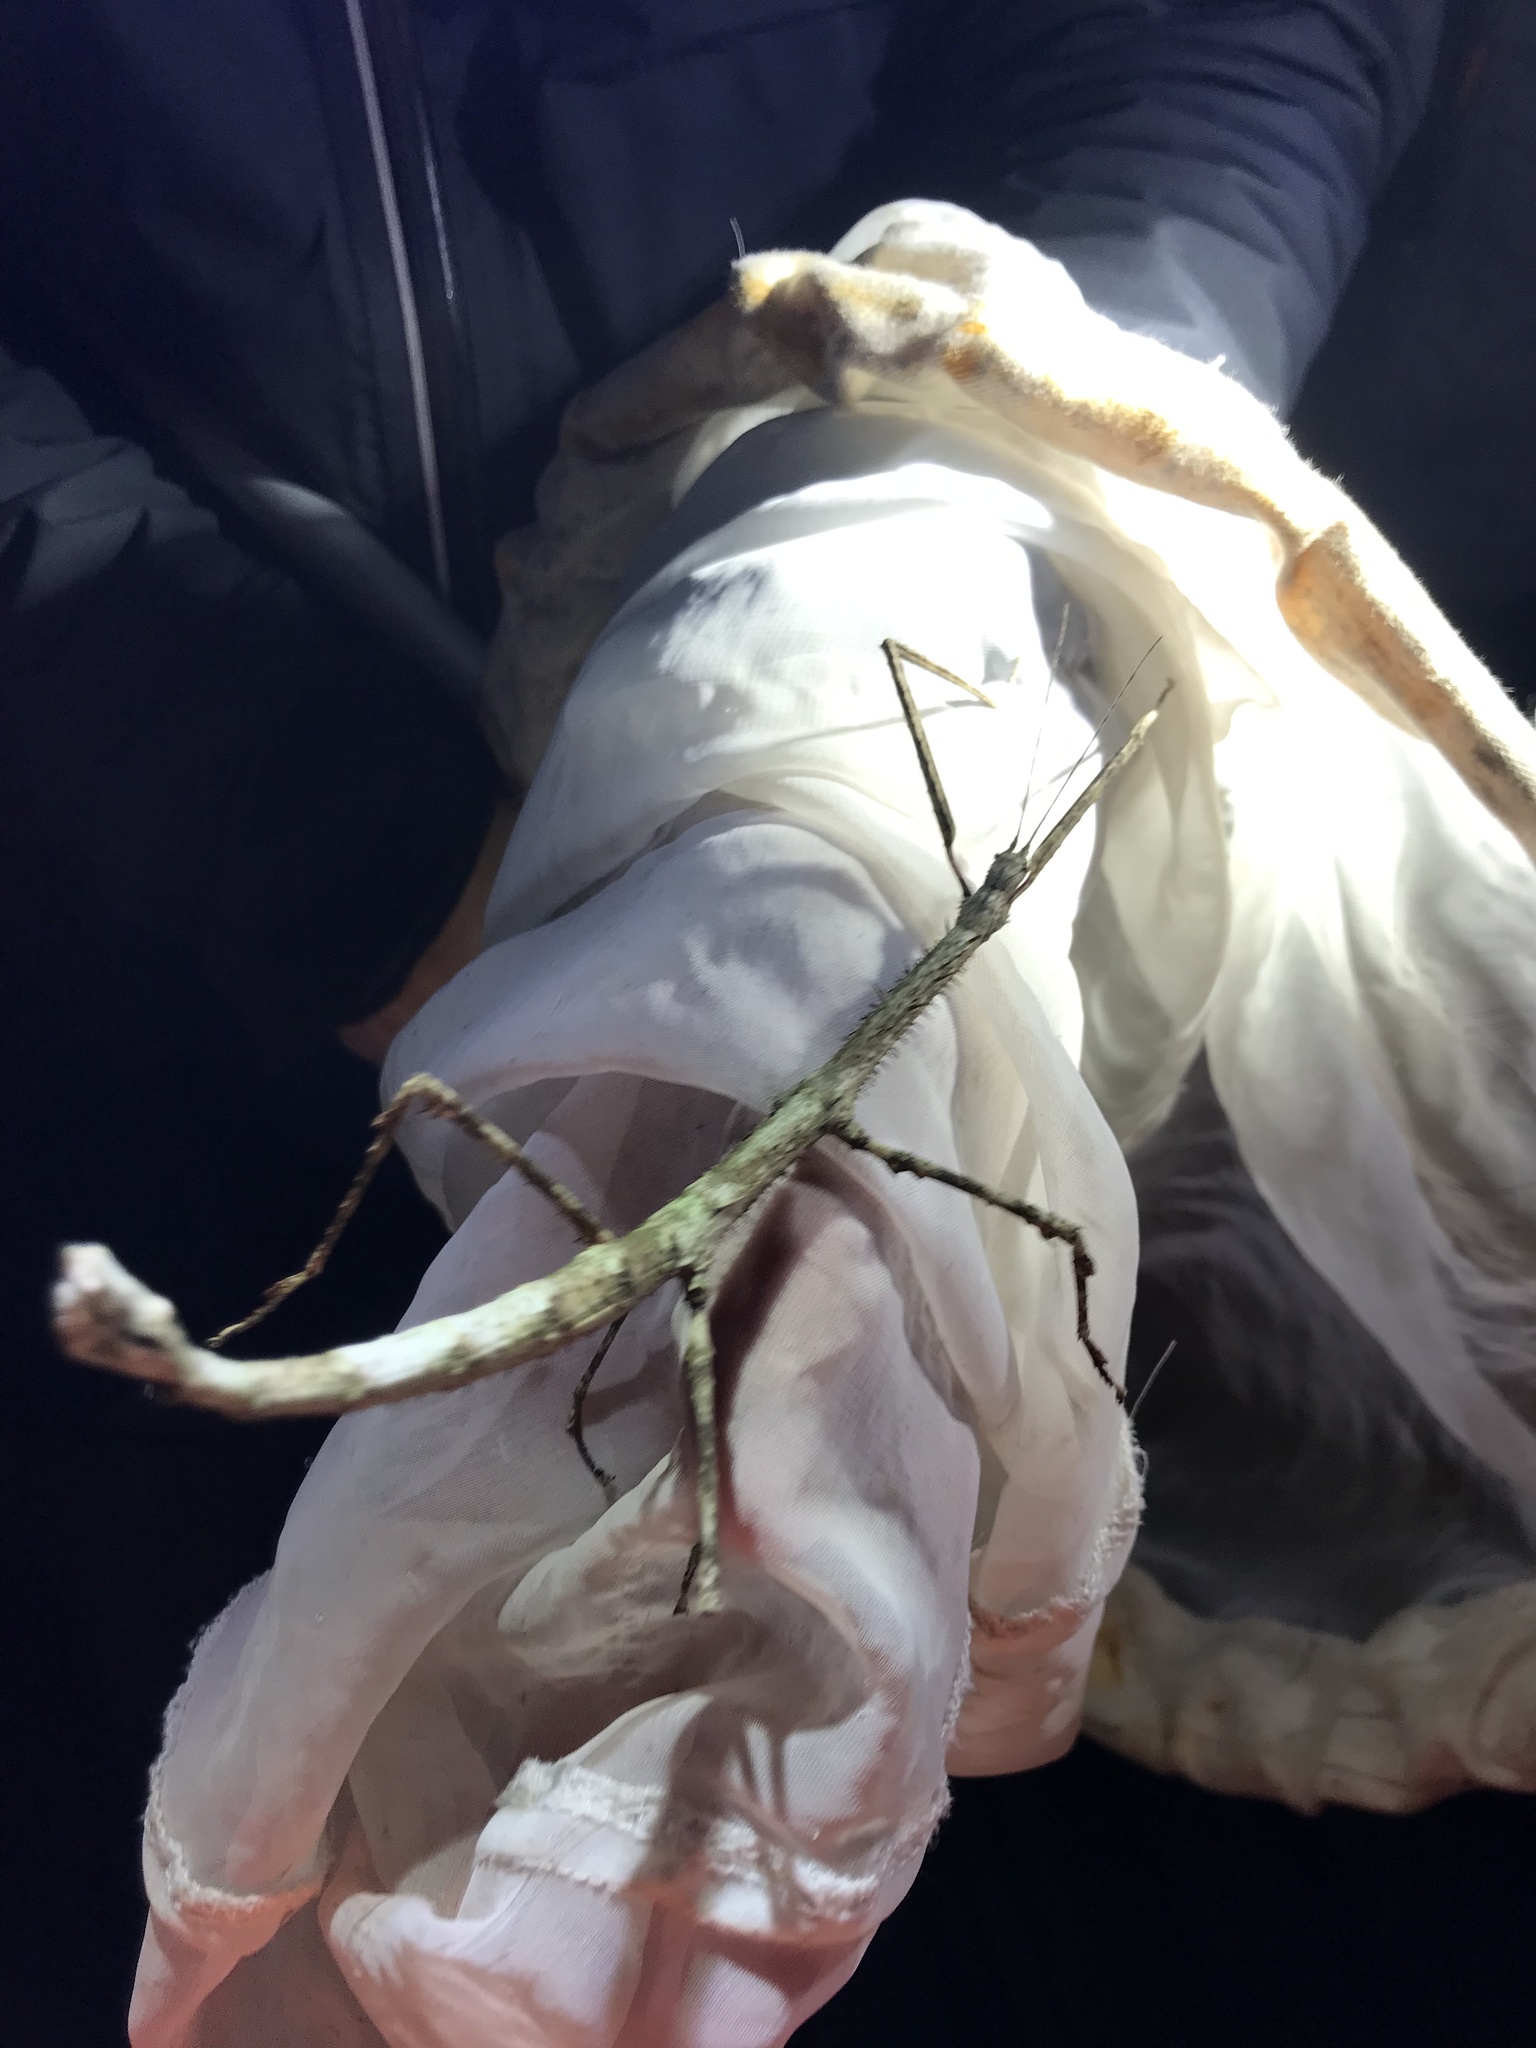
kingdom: Animalia
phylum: Arthropoda
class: Insecta
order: Phasmida
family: Phasmatidae
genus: Argosarchus
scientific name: Argosarchus horridus
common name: Bristly stick insect
